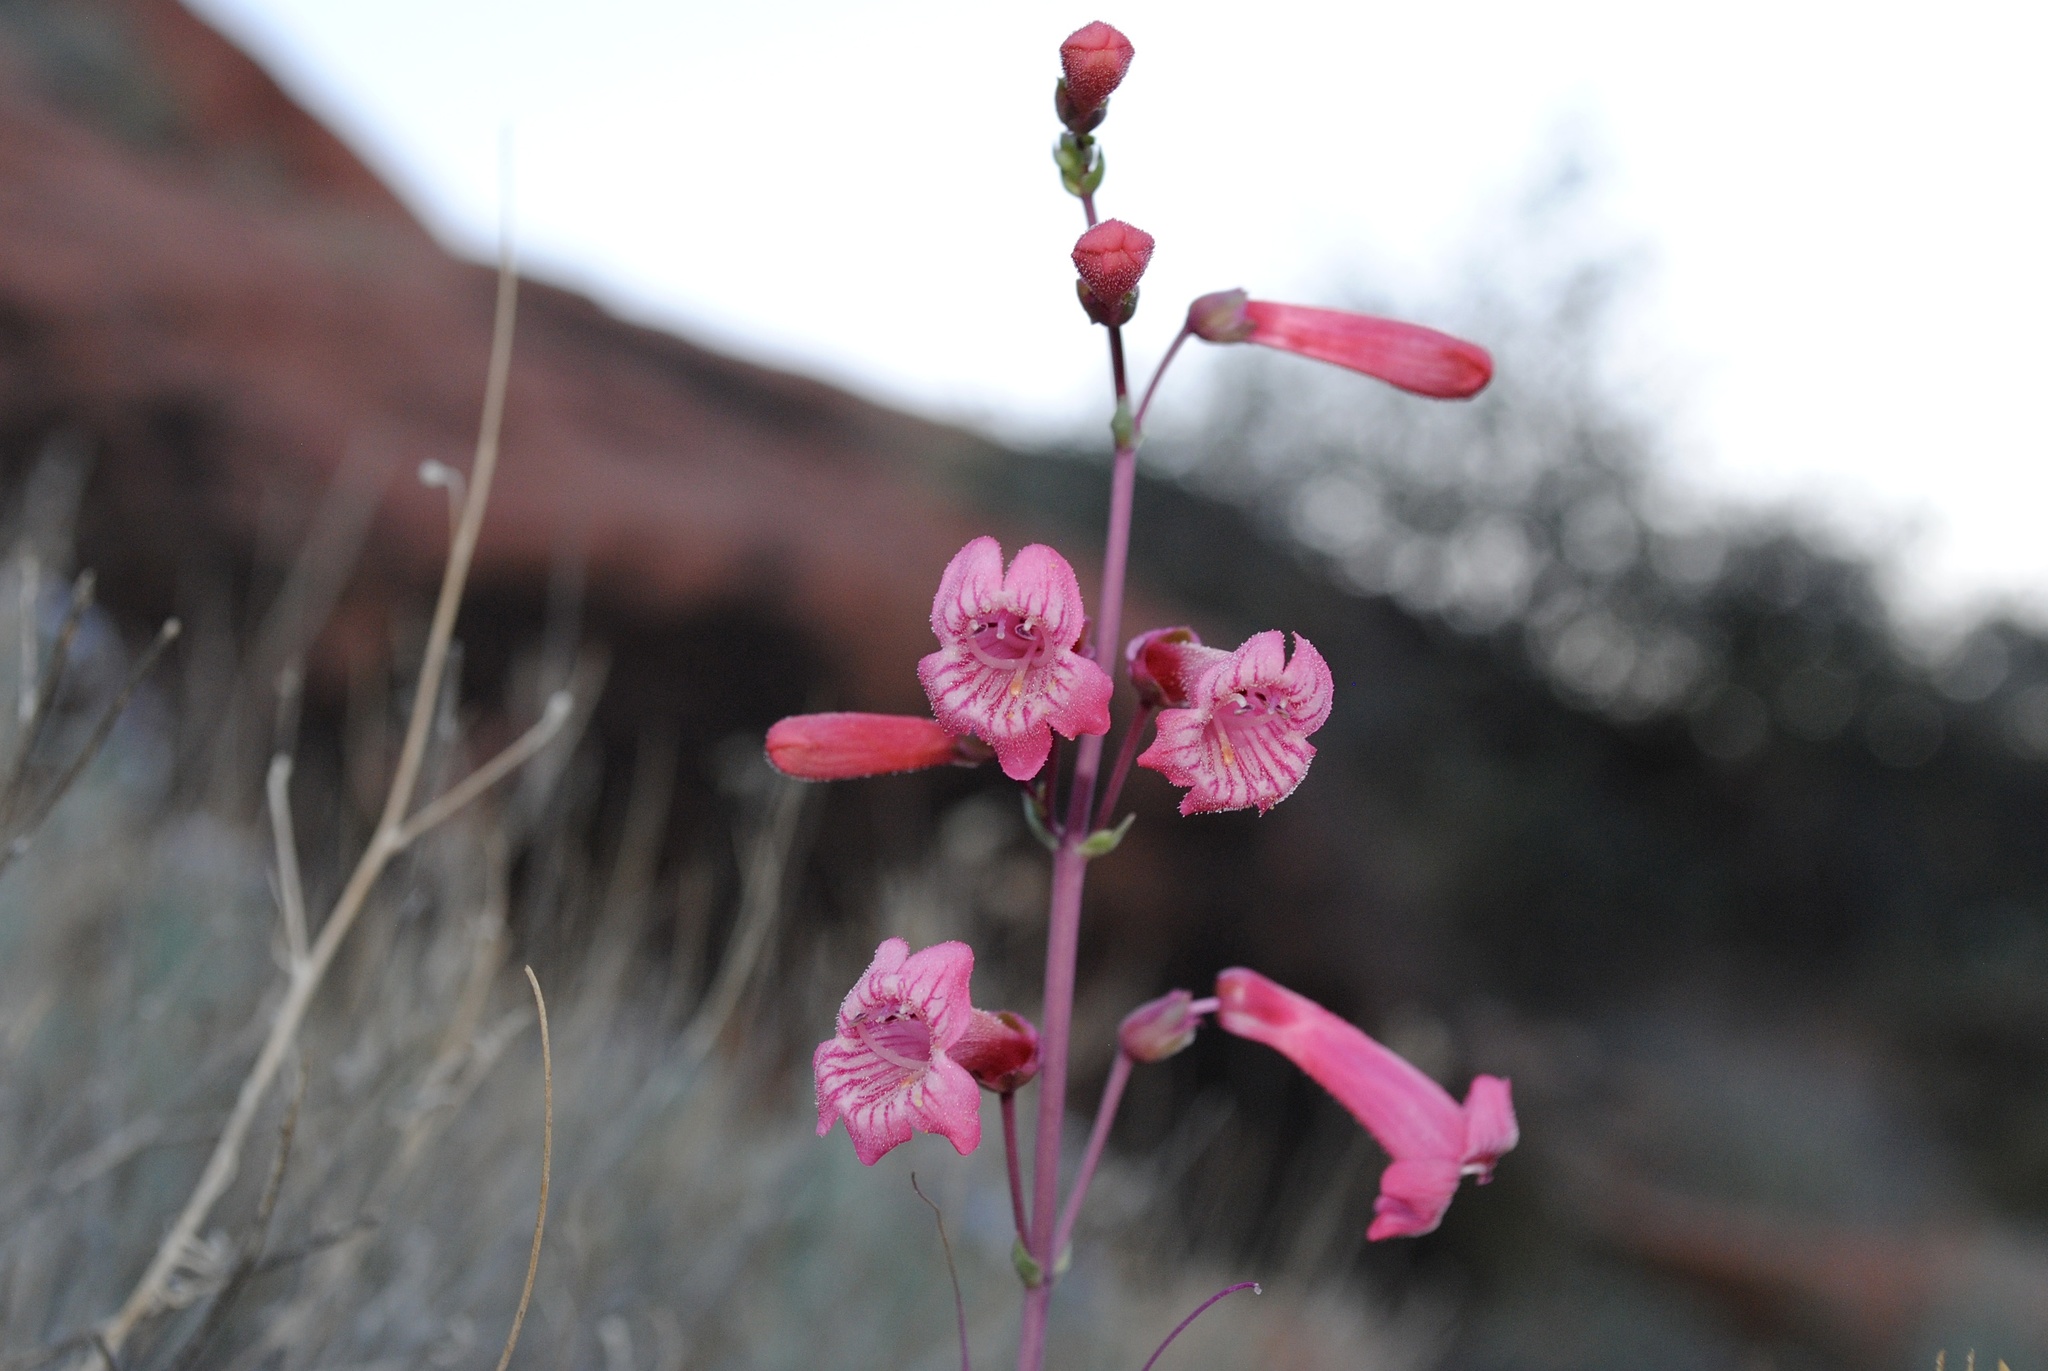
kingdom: Plantae
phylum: Tracheophyta
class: Magnoliopsida
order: Lamiales
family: Plantaginaceae
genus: Penstemon
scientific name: Penstemon utahensis
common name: Utah penstemon
